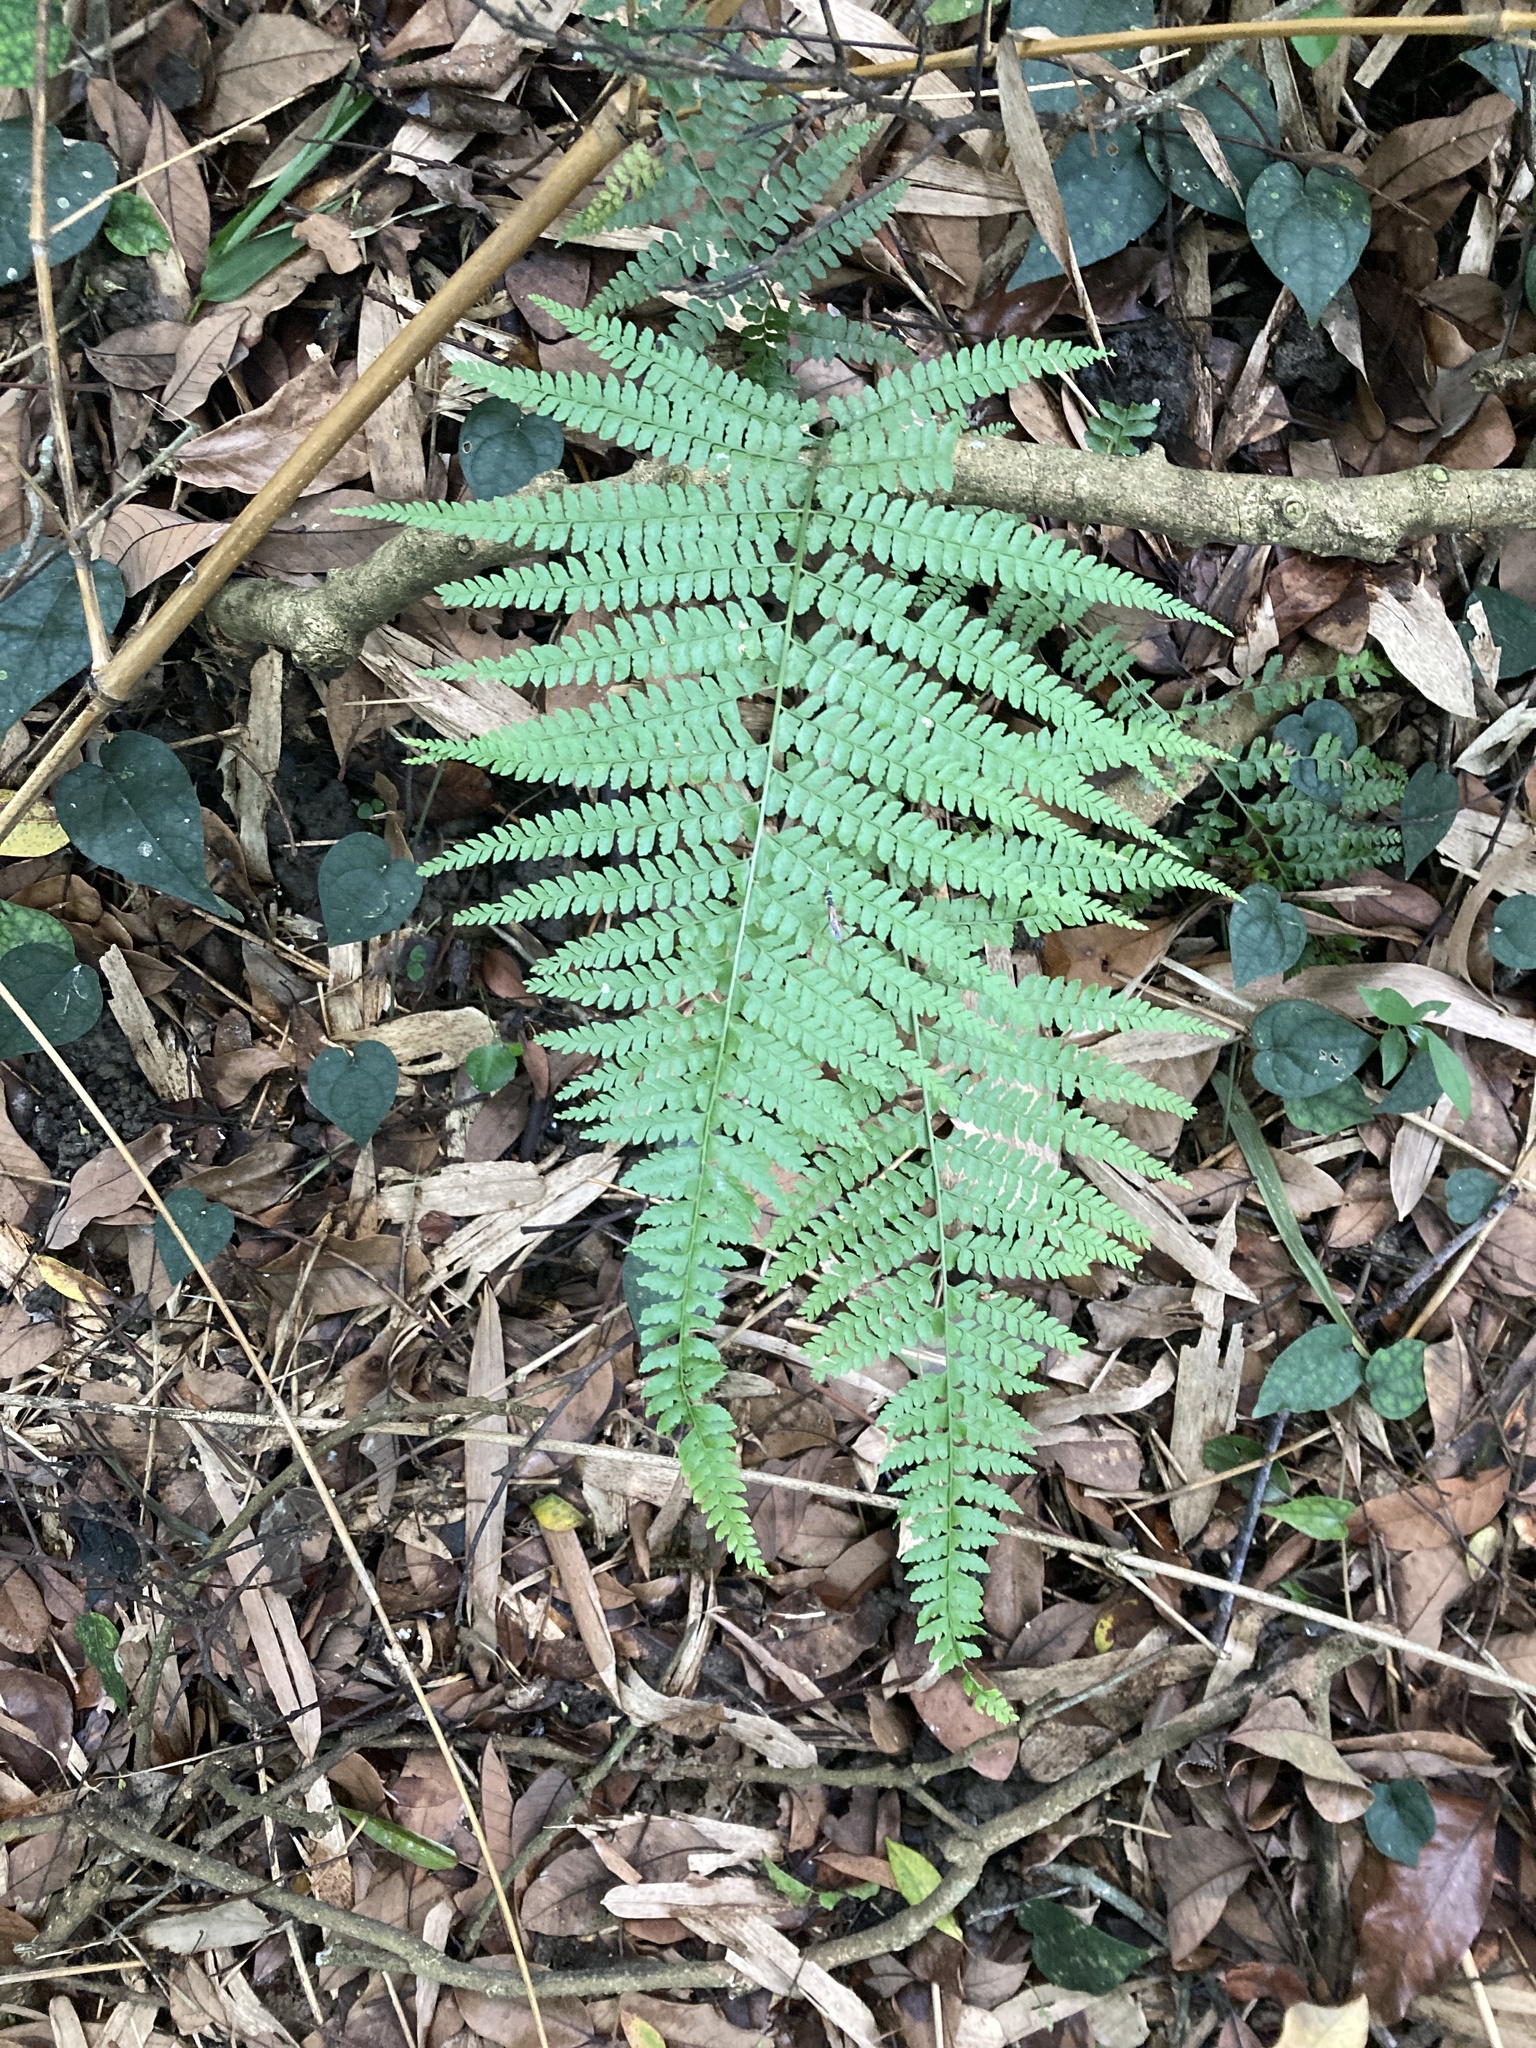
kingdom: Plantae
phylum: Tracheophyta
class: Polypodiopsida
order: Polypodiales
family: Dennstaedtiaceae
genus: Microlepia
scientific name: Microlepia strigosa
